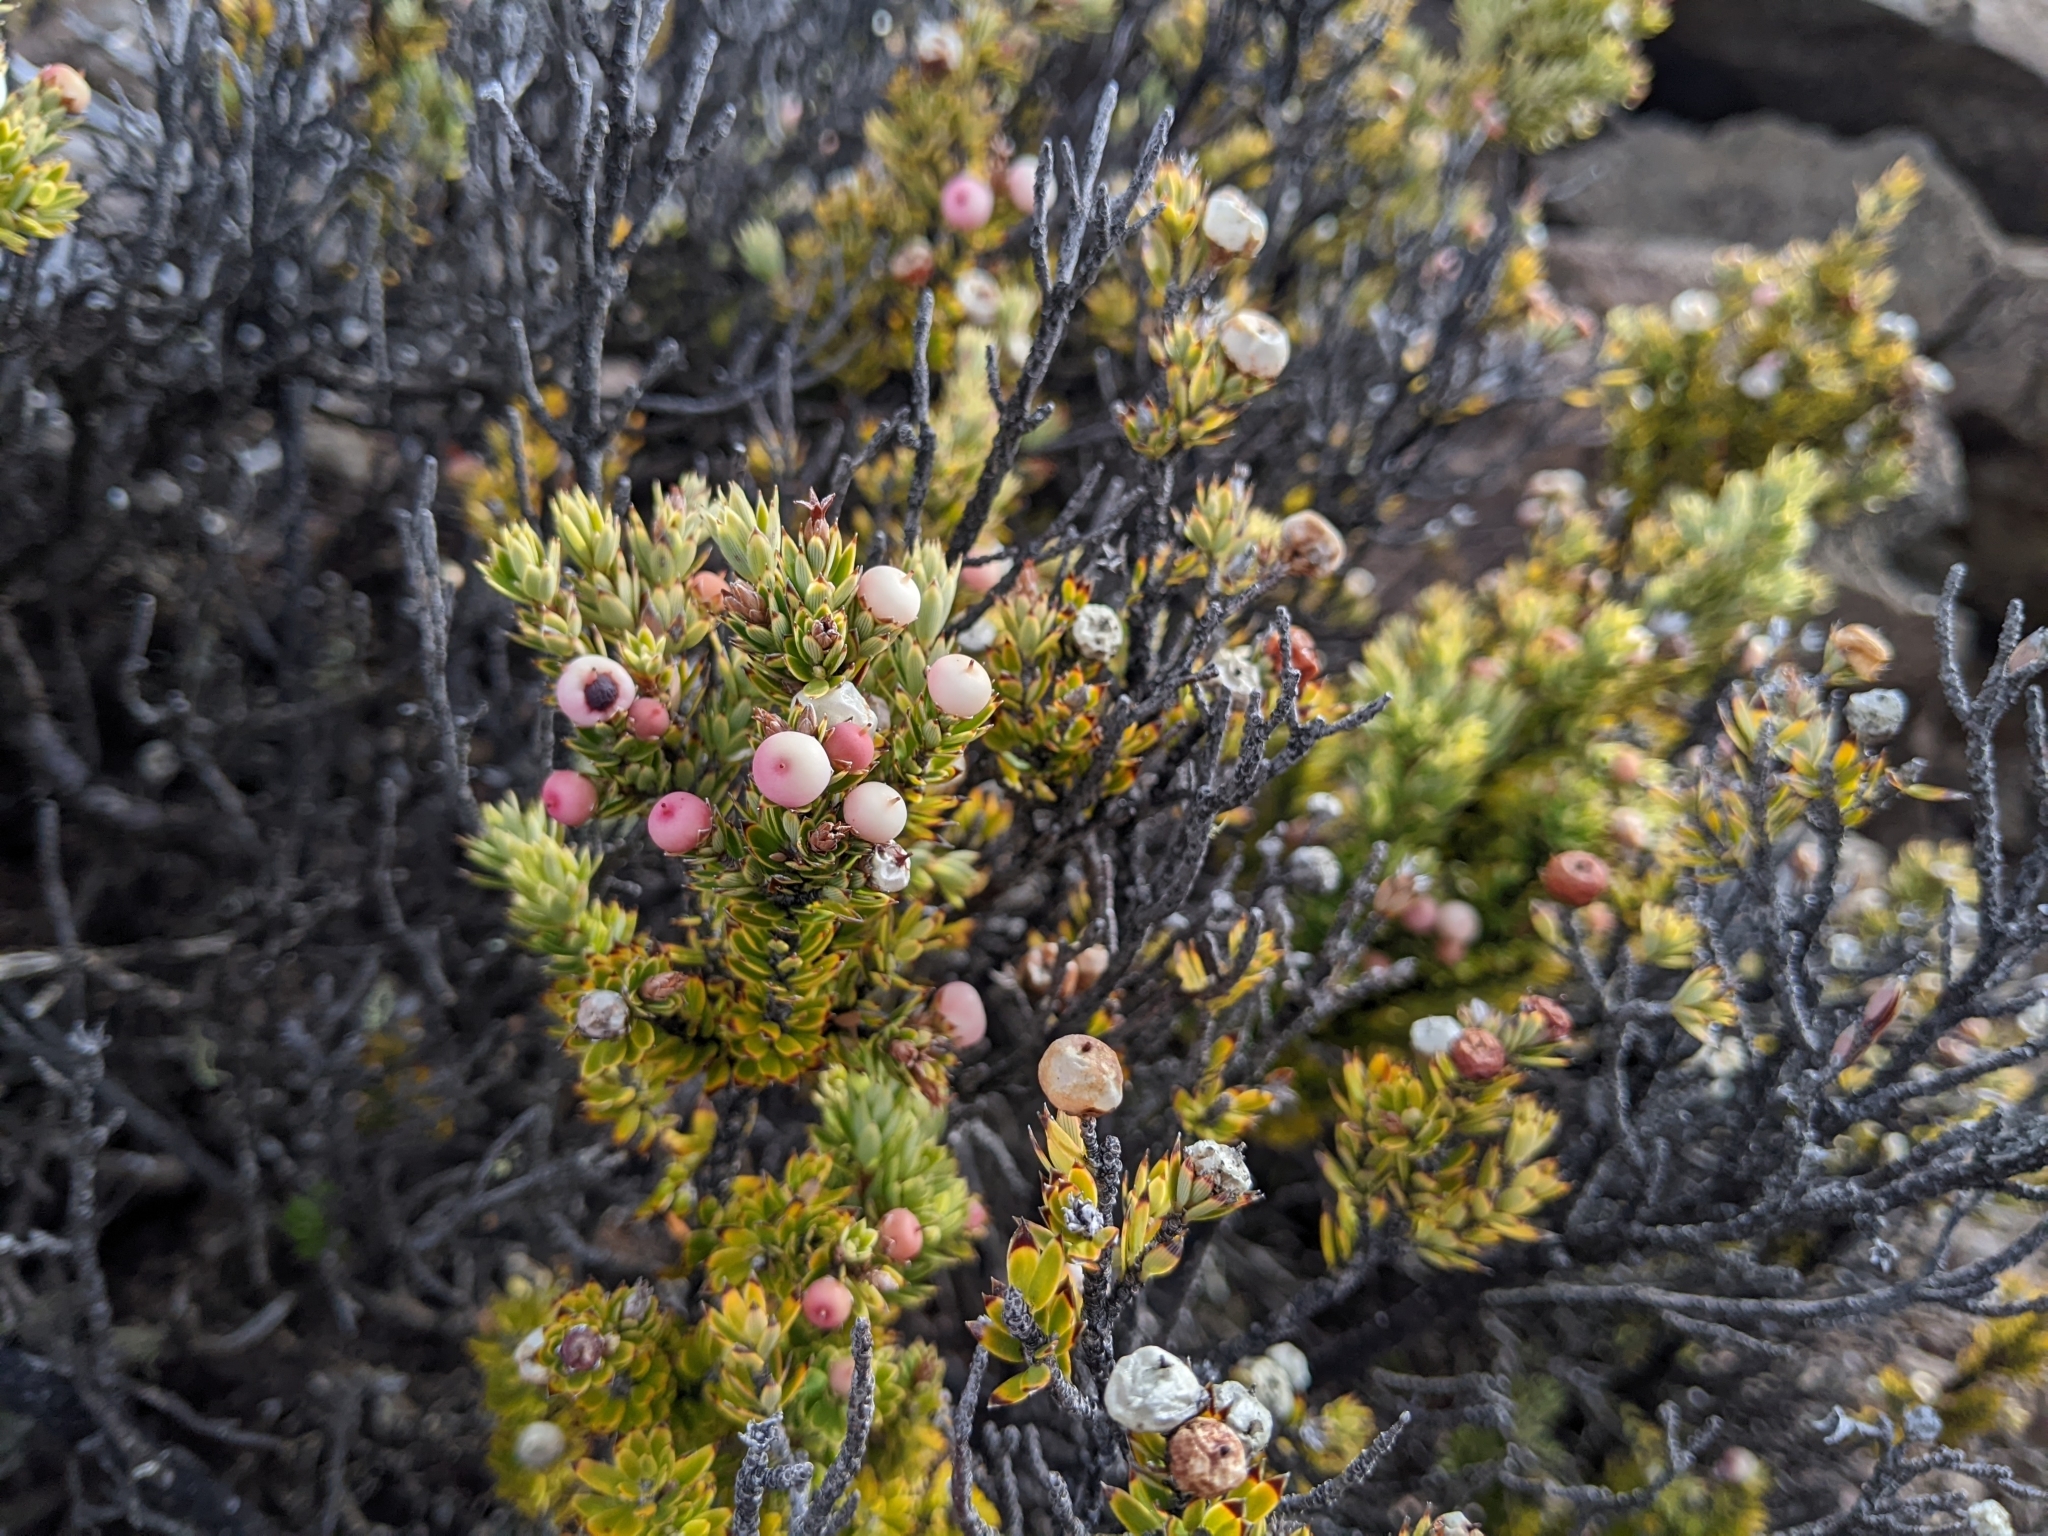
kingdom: Plantae
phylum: Tracheophyta
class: Magnoliopsida
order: Ericales
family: Ericaceae
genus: Leptecophylla
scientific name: Leptecophylla tameiameiae
